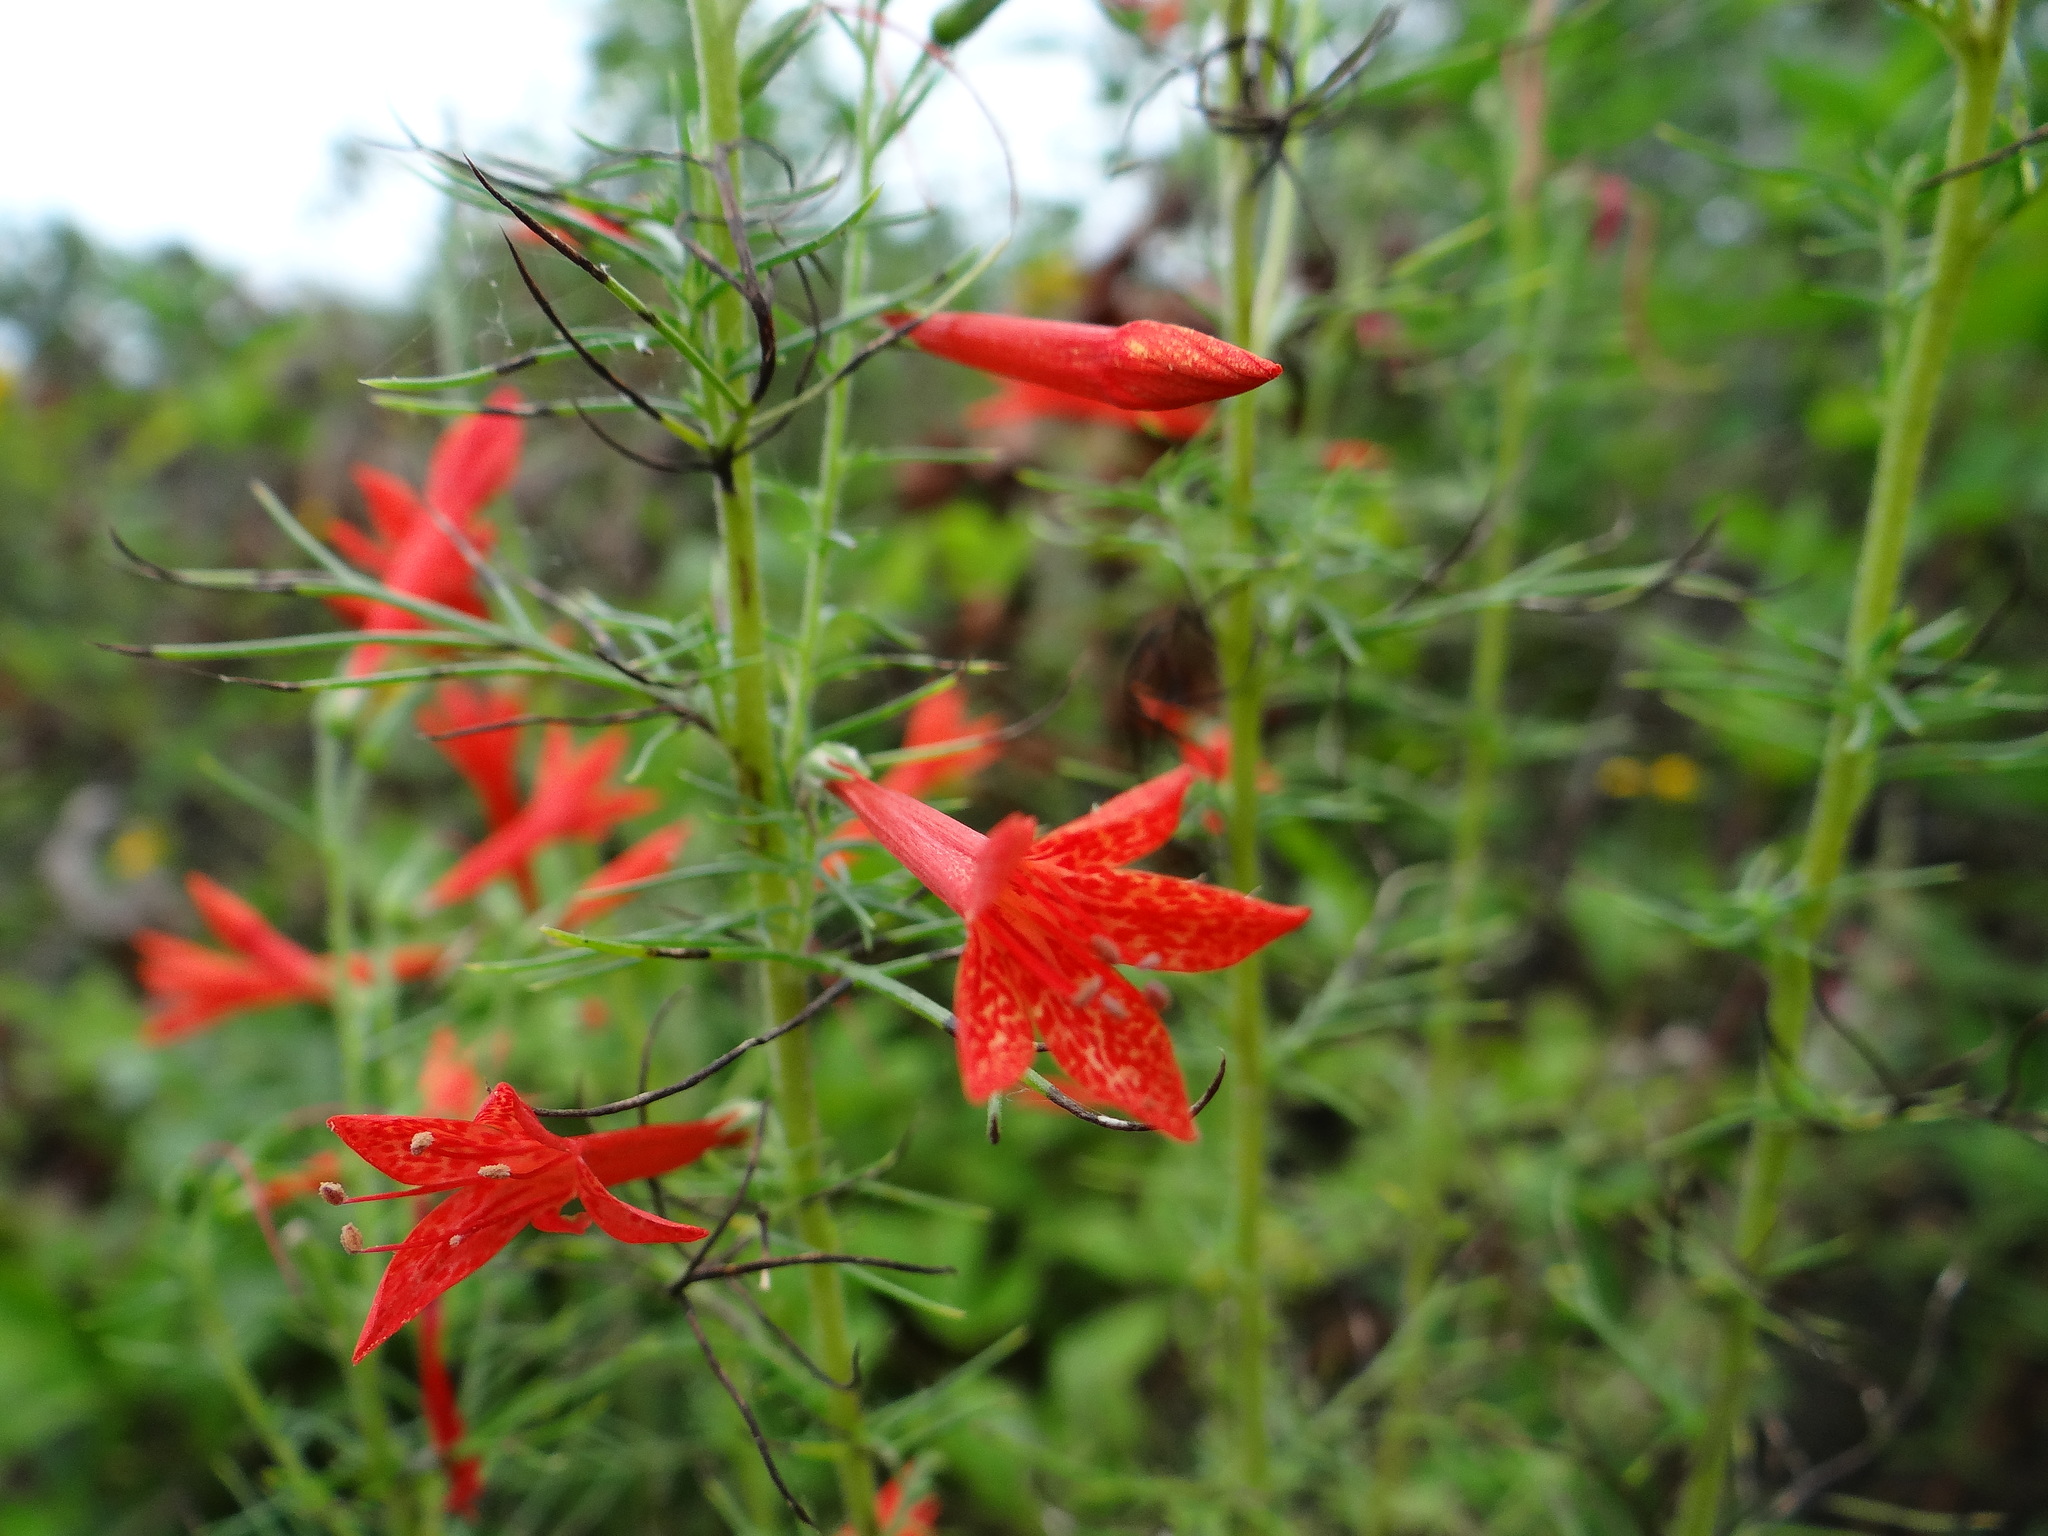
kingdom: Plantae
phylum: Tracheophyta
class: Magnoliopsida
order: Ericales
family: Polemoniaceae
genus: Ipomopsis
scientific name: Ipomopsis rubra
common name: Skyrocket
